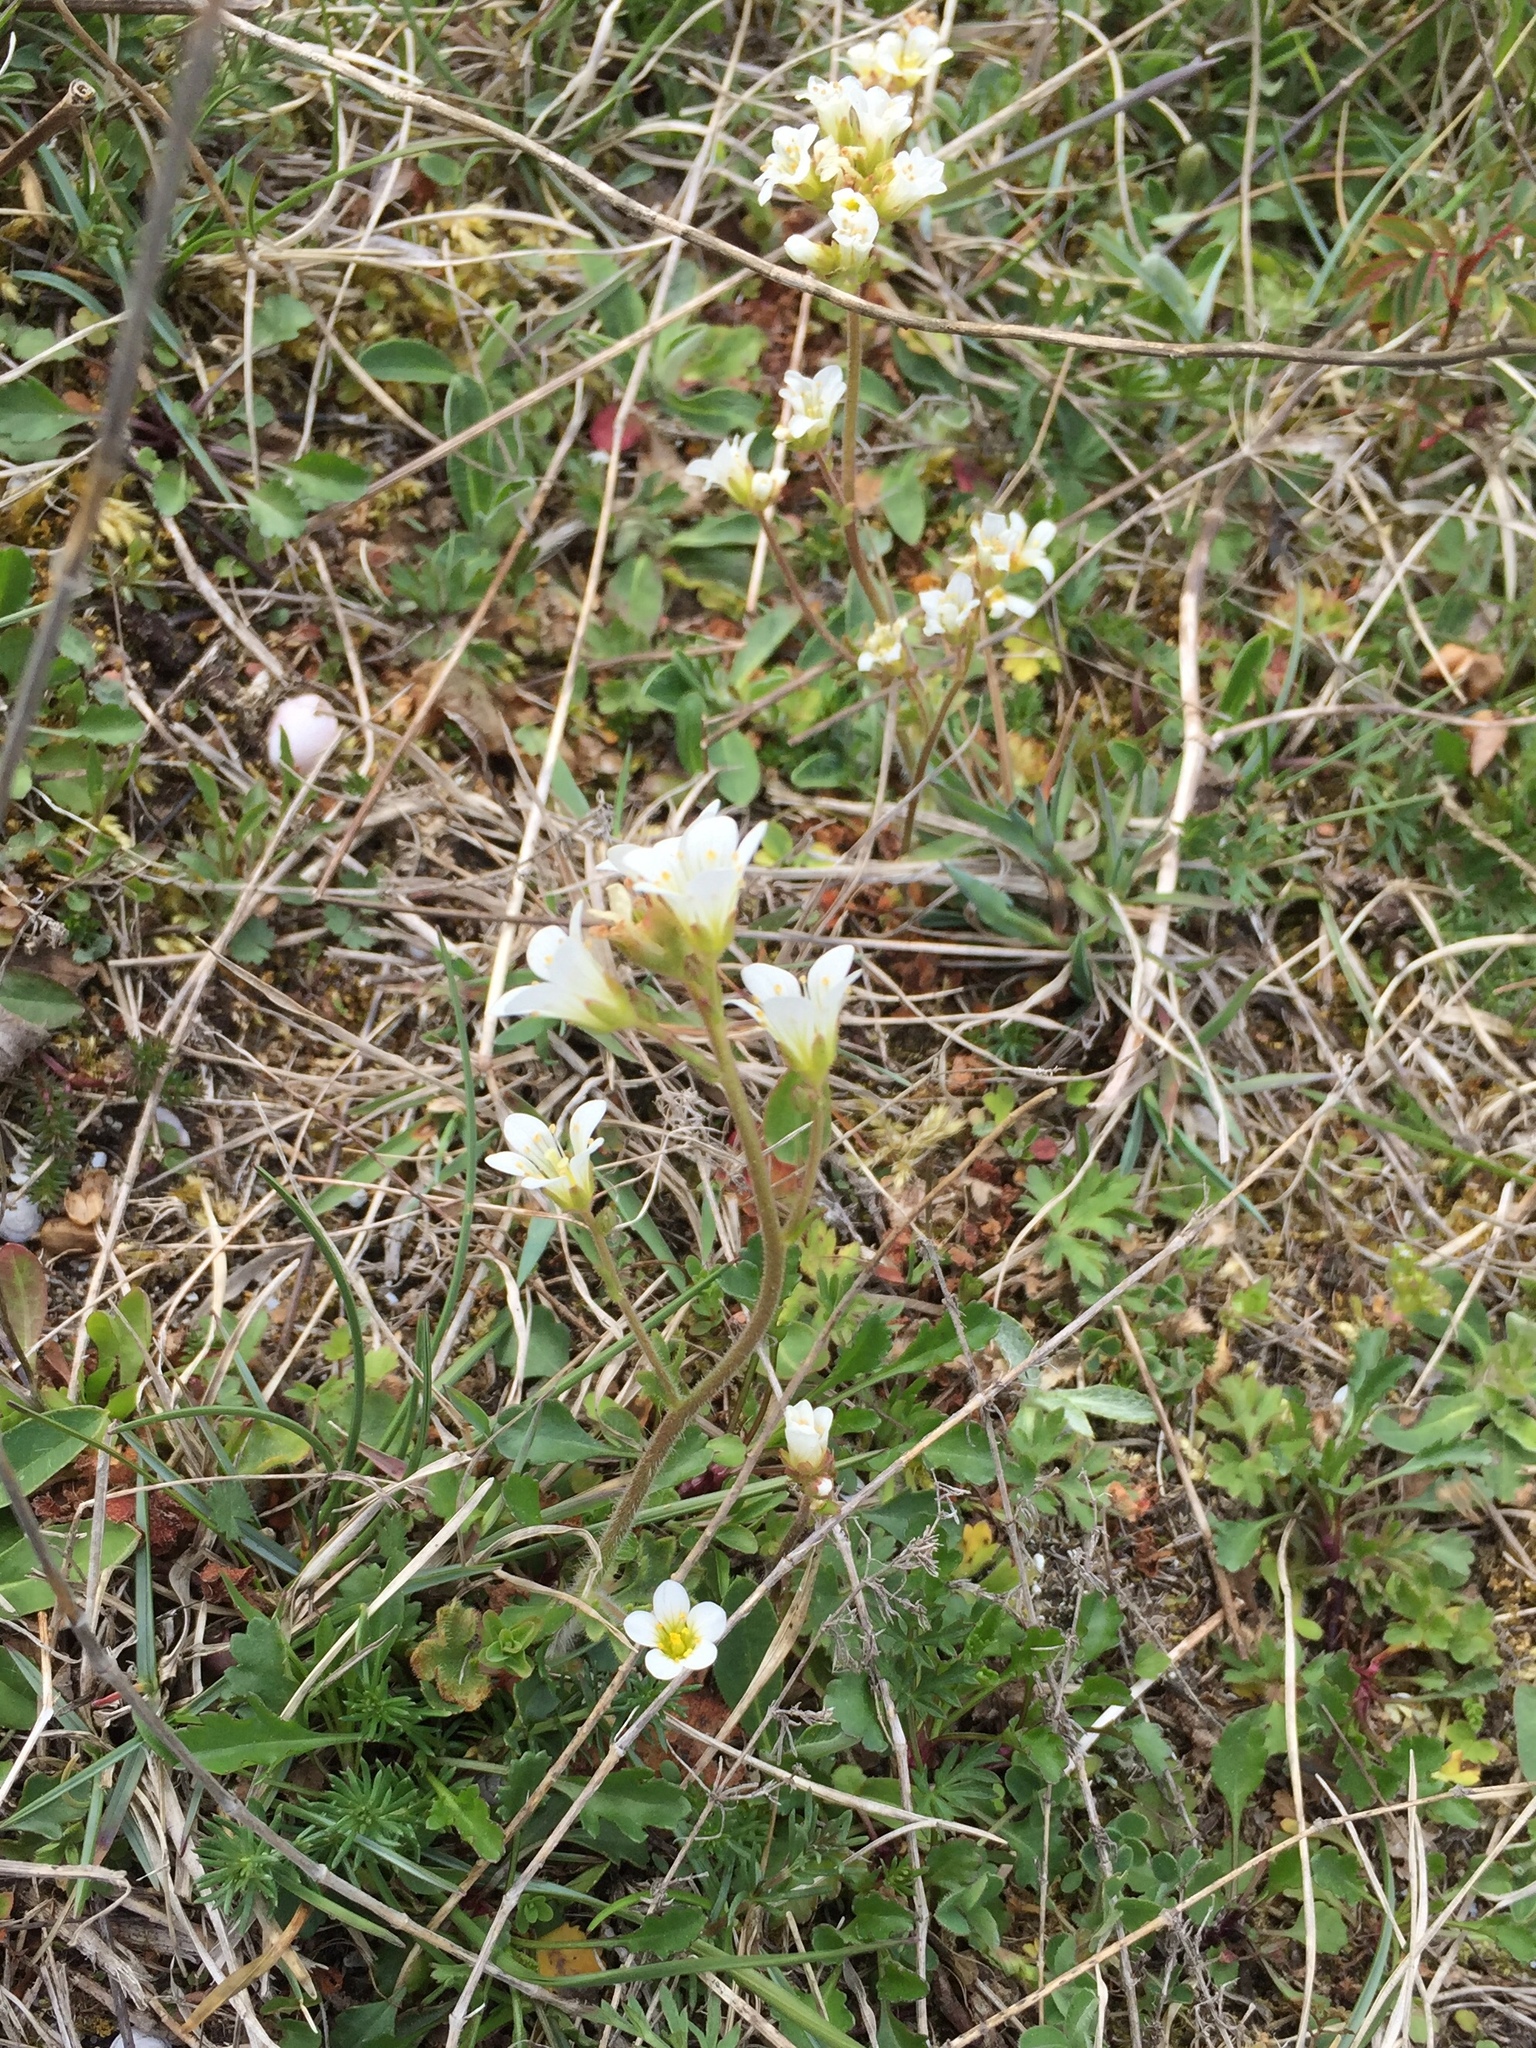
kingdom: Plantae
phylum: Tracheophyta
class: Magnoliopsida
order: Saxifragales
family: Saxifragaceae
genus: Saxifraga
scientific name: Saxifraga granulata
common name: Meadow saxifrage
